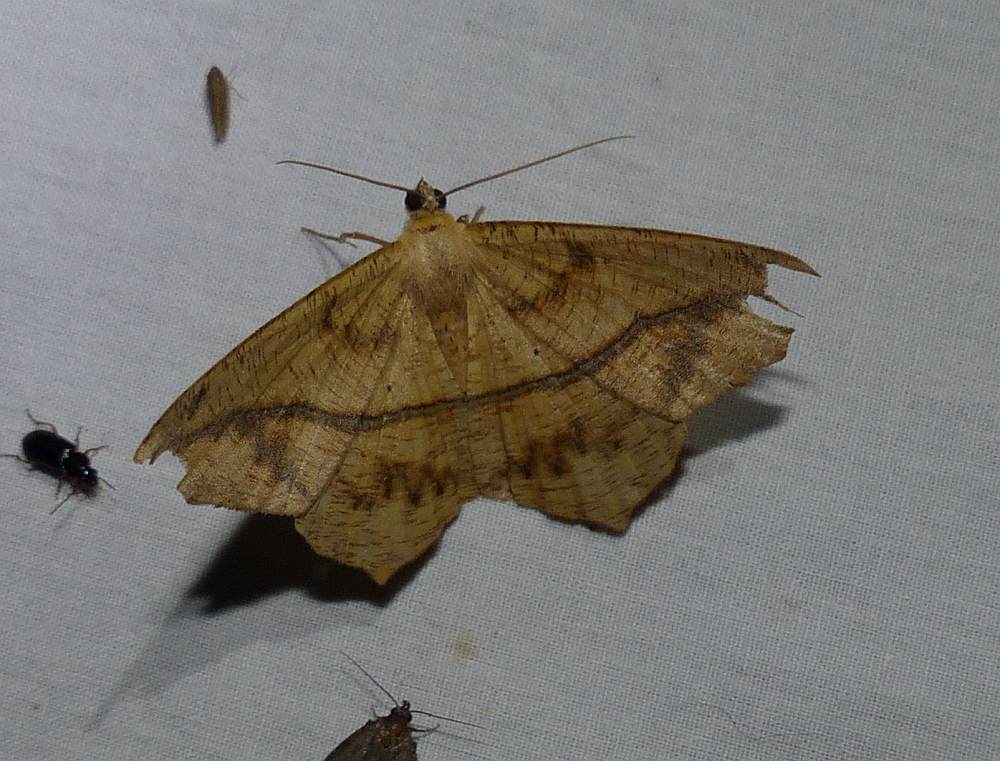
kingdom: Animalia
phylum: Arthropoda
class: Insecta
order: Lepidoptera
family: Geometridae
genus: Prochoerodes
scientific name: Prochoerodes lineola
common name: Large maple spanworm
